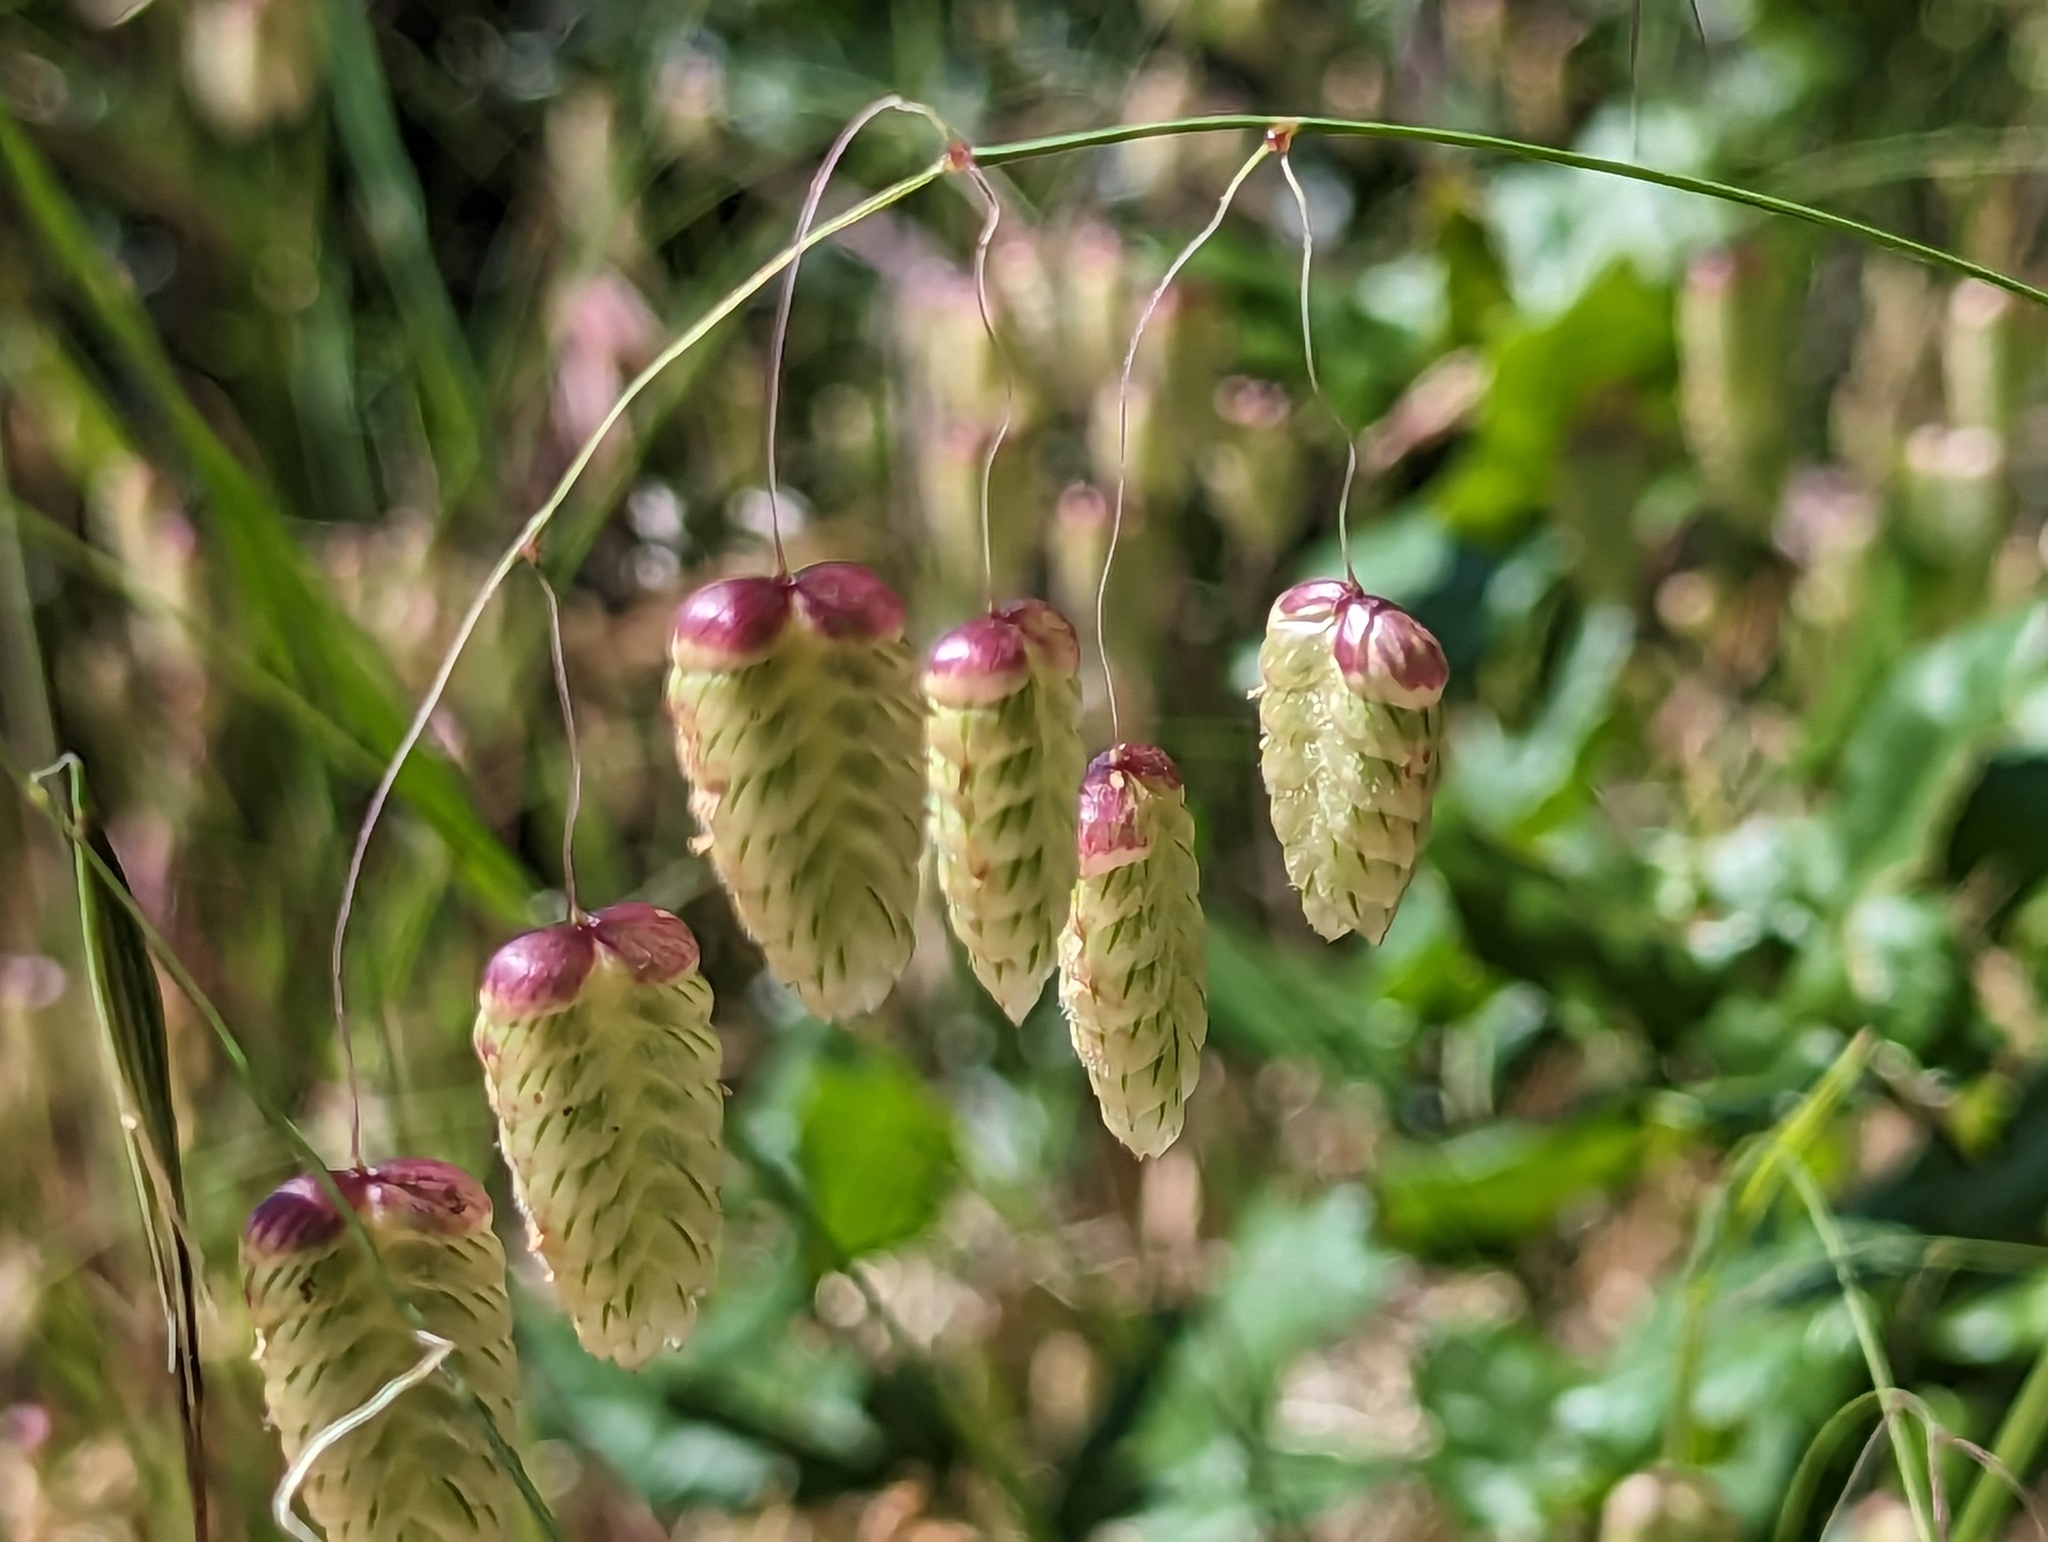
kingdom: Plantae
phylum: Tracheophyta
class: Liliopsida
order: Poales
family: Poaceae
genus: Briza
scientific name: Briza maxima
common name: Big quakinggrass
